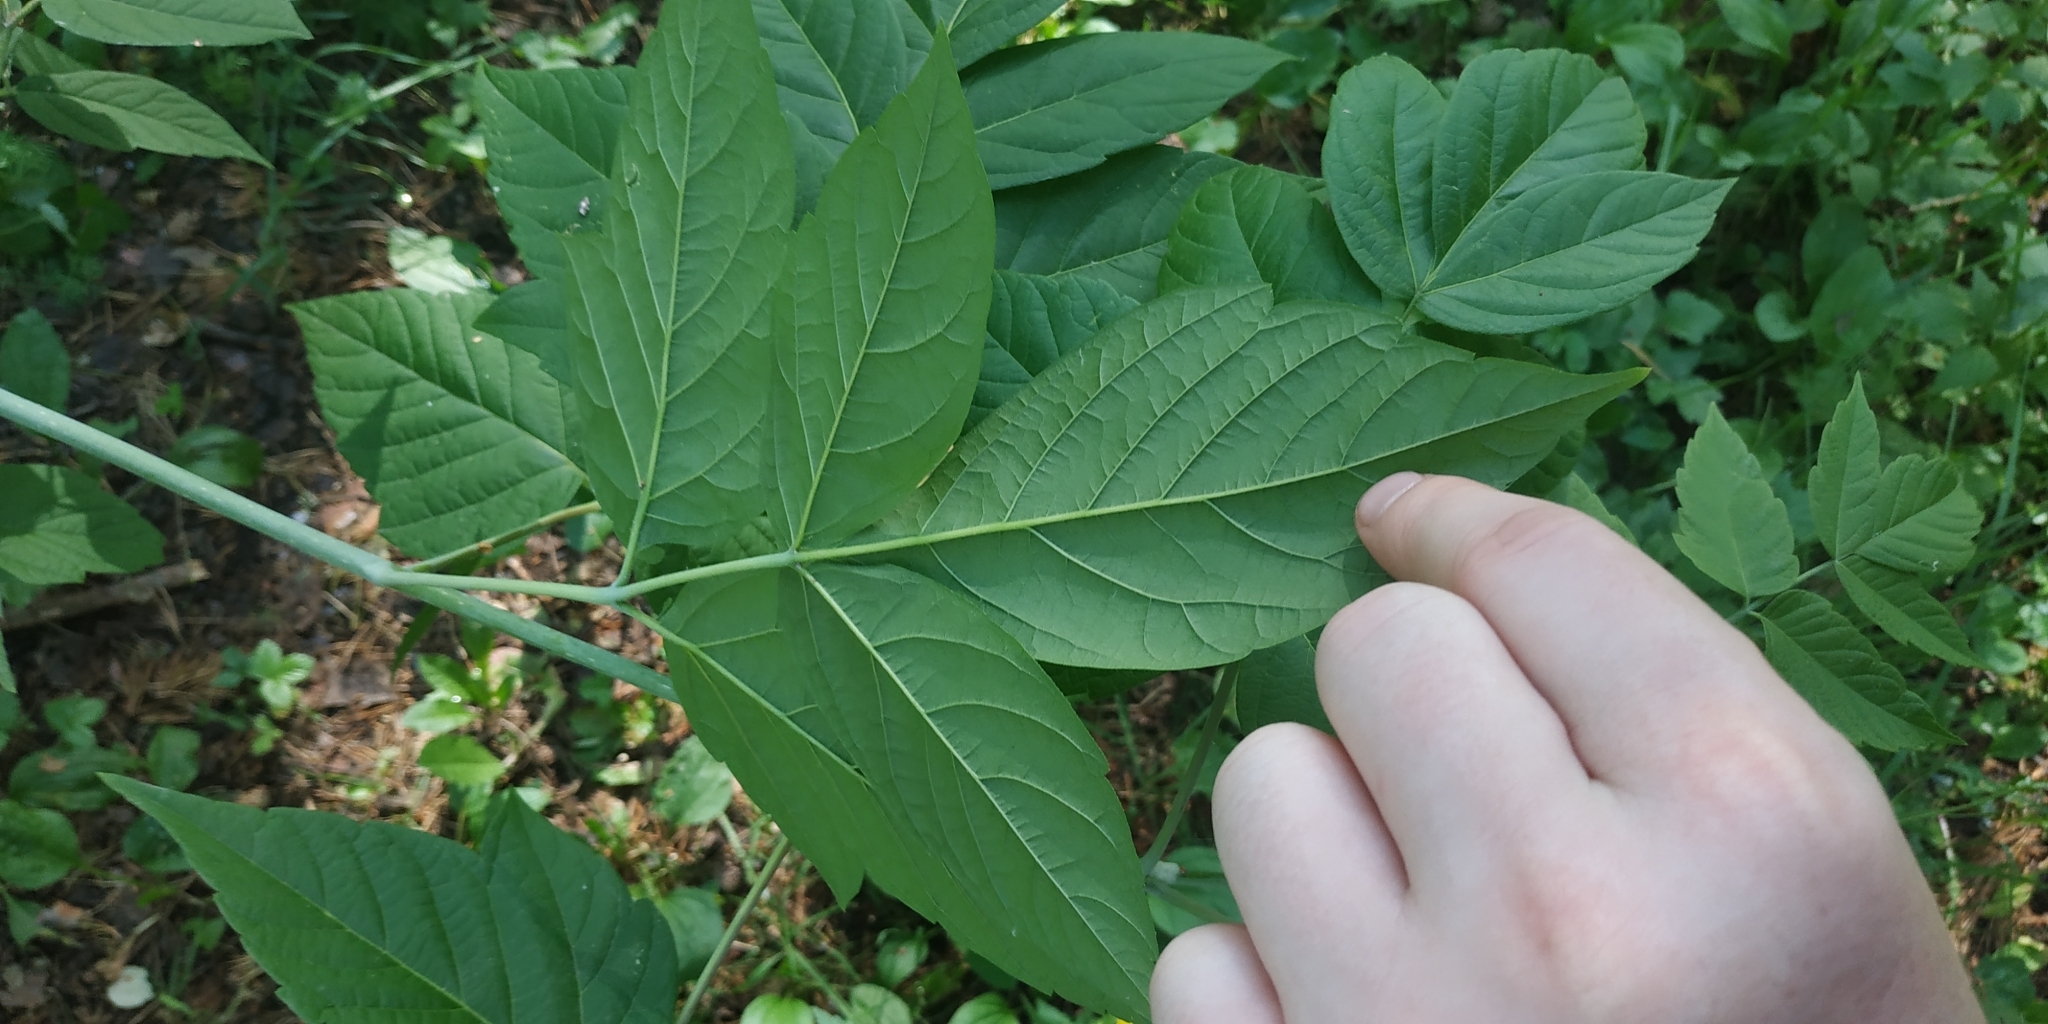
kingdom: Plantae
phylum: Tracheophyta
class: Magnoliopsida
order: Sapindales
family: Sapindaceae
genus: Acer
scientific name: Acer negundo
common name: Ashleaf maple
